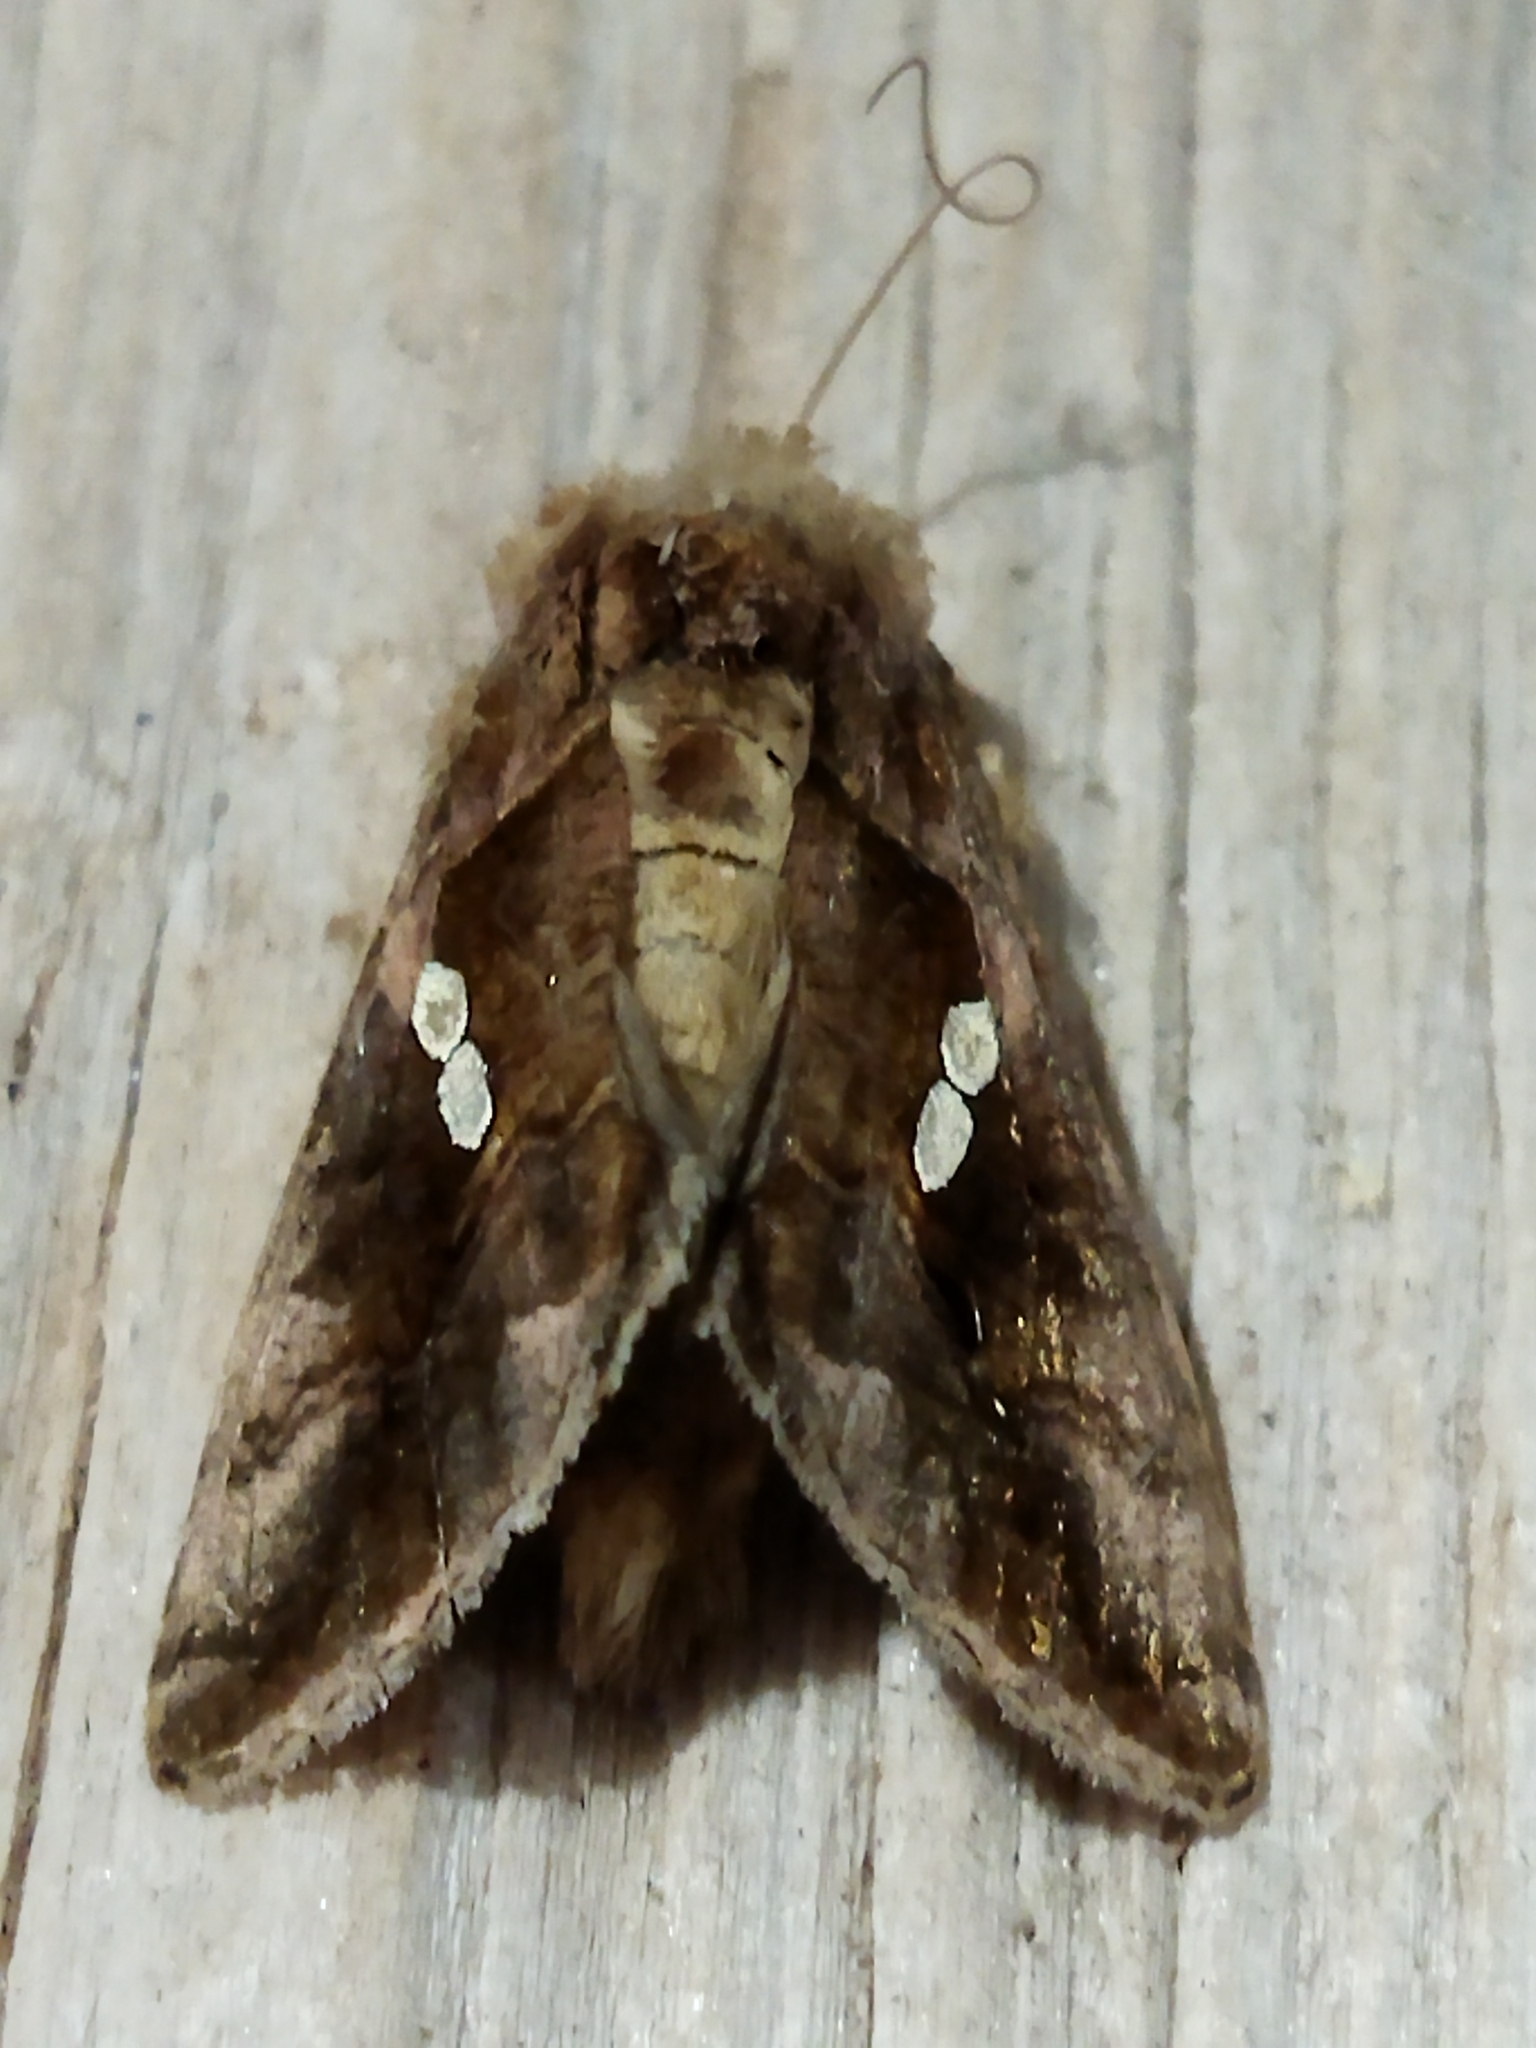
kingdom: Animalia
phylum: Arthropoda
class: Insecta
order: Lepidoptera
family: Noctuidae
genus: Chrysodeixis
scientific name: Chrysodeixis chalcites
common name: Golden twin-spot
